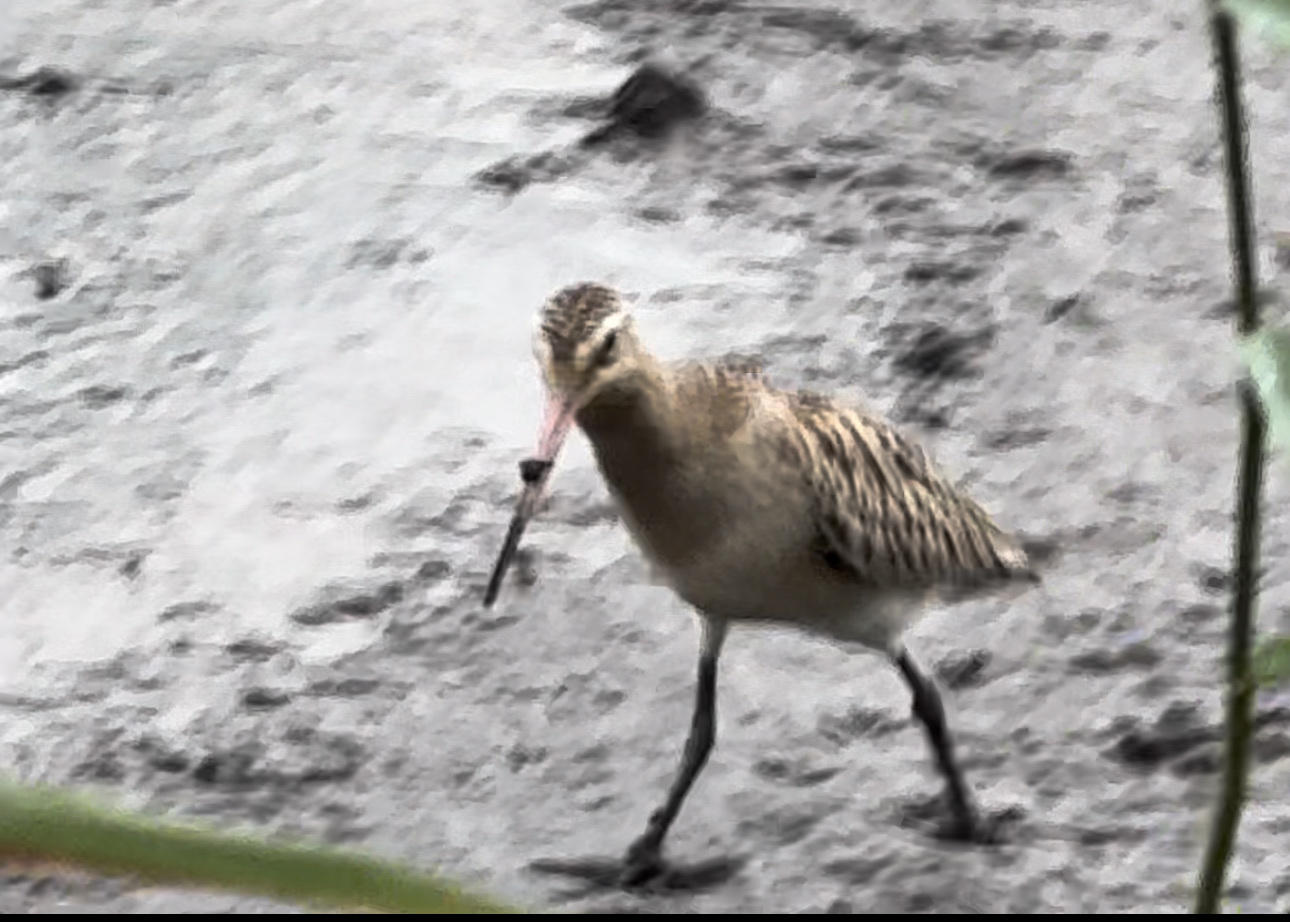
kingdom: Animalia
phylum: Chordata
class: Aves
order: Charadriiformes
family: Scolopacidae
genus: Limosa
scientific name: Limosa lapponica
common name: Bar-tailed godwit
